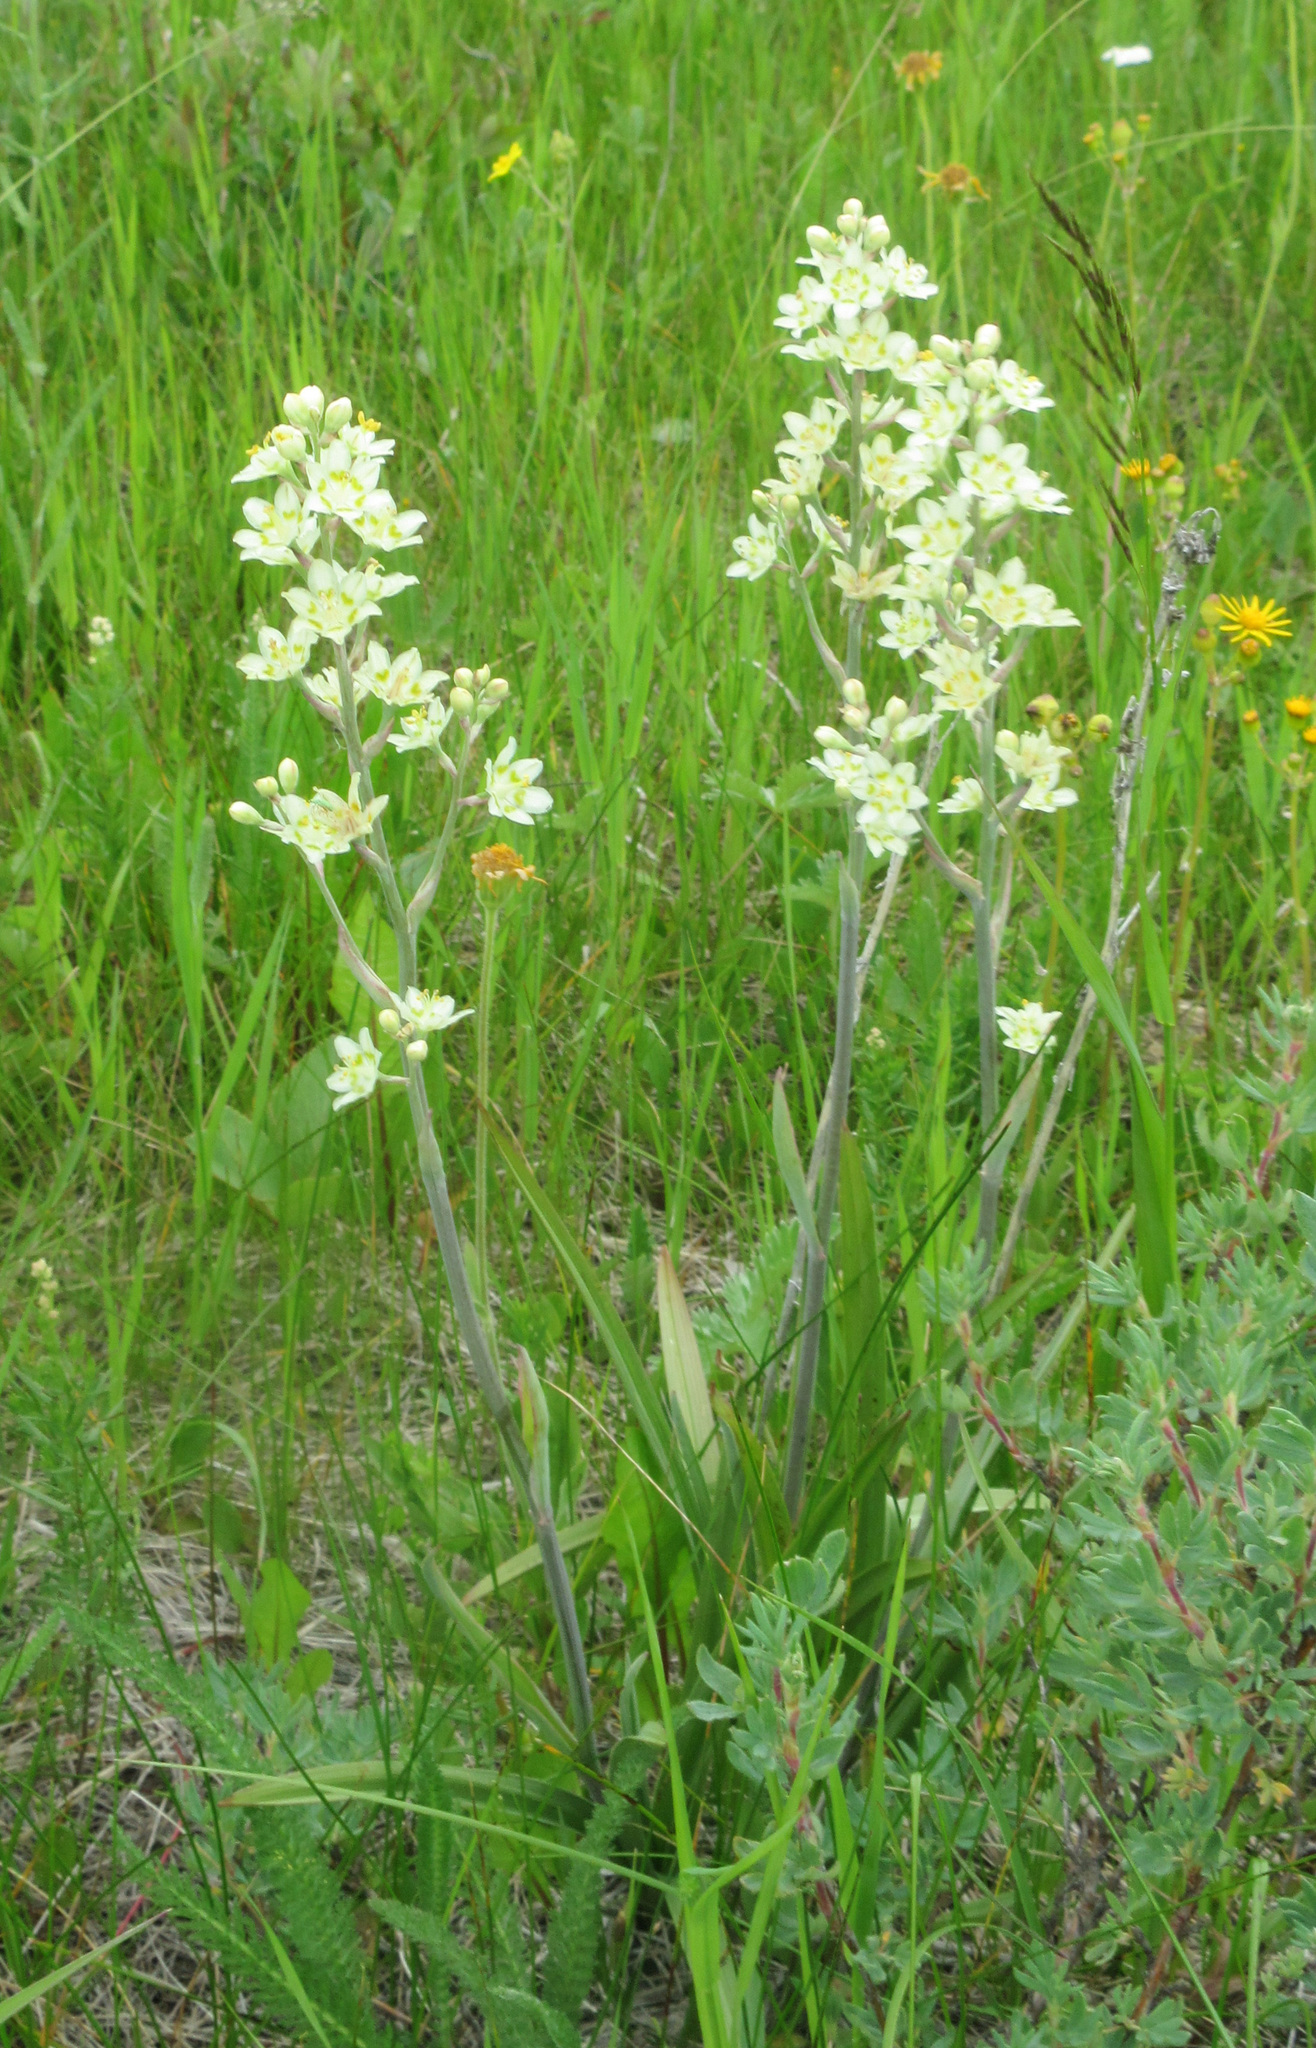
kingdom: Plantae
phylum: Tracheophyta
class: Liliopsida
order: Liliales
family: Melanthiaceae
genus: Anticlea
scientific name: Anticlea elegans
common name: Mountain death camas
